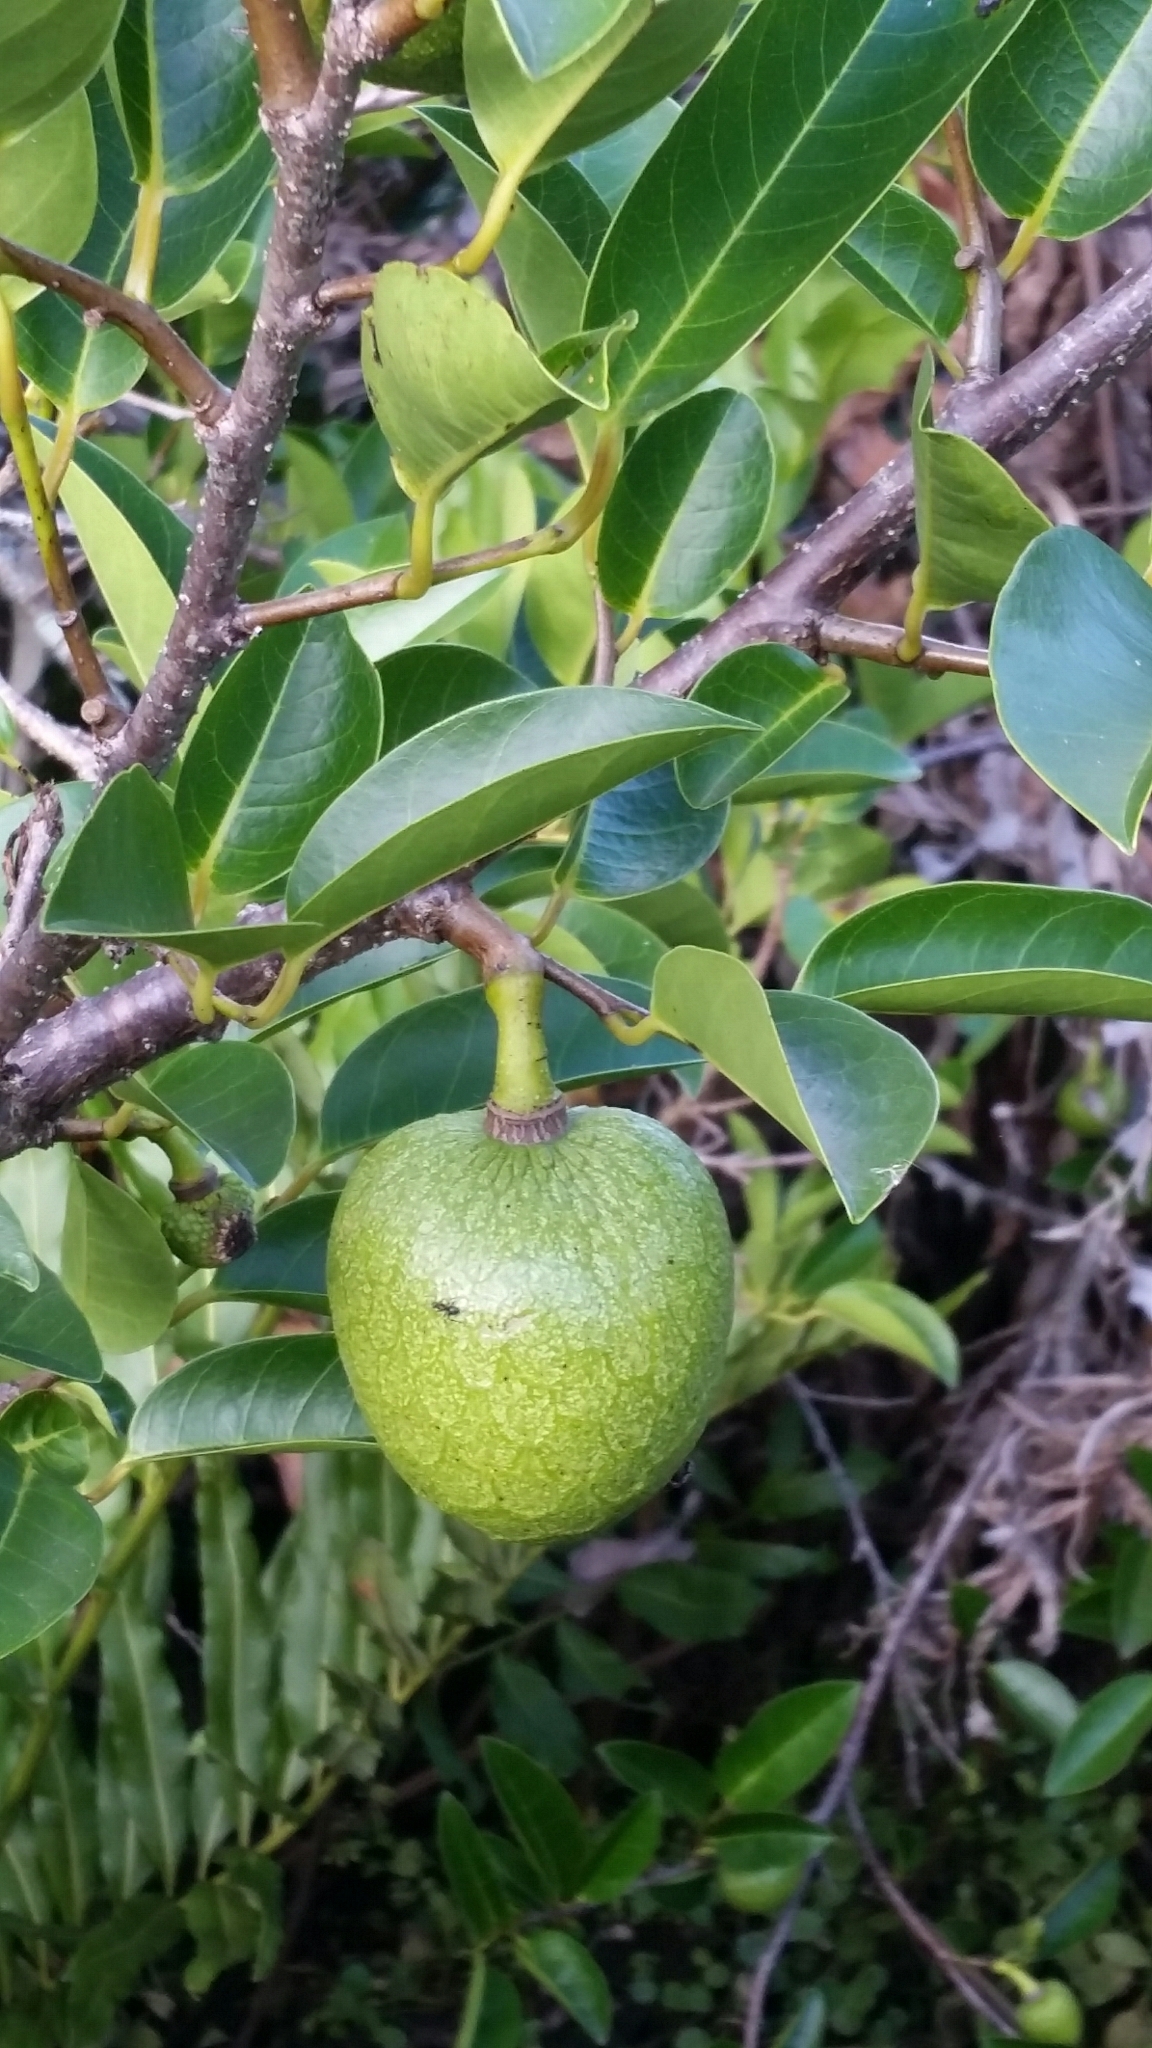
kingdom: Plantae
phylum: Tracheophyta
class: Magnoliopsida
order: Magnoliales
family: Annonaceae
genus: Annona
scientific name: Annona glabra
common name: Monkey apple
